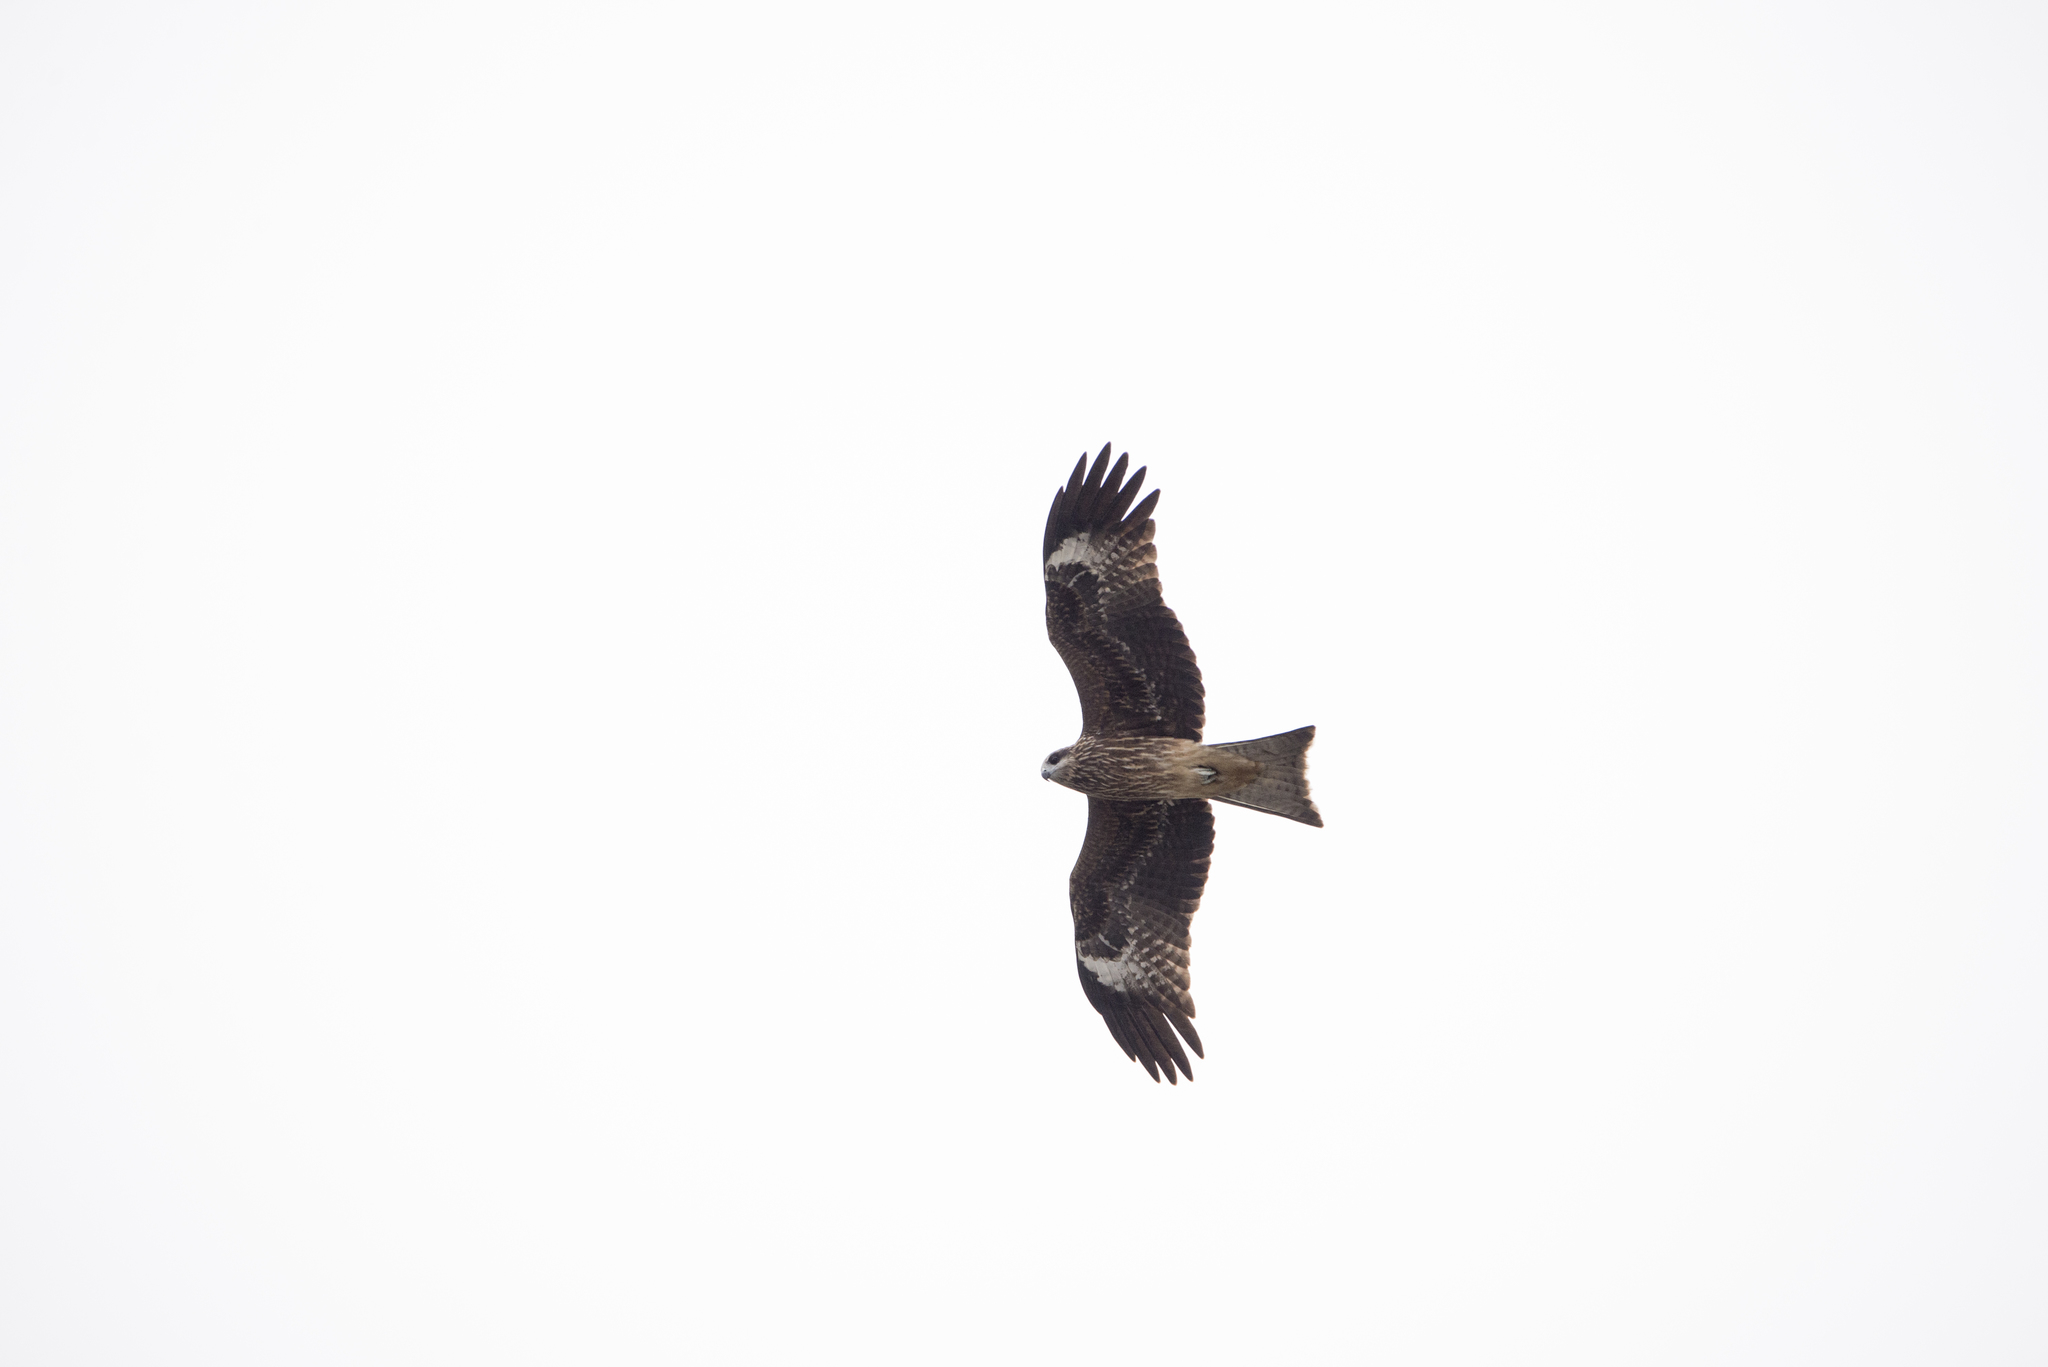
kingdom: Animalia
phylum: Chordata
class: Aves
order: Accipitriformes
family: Accipitridae
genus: Milvus
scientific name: Milvus migrans
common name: Black kite
